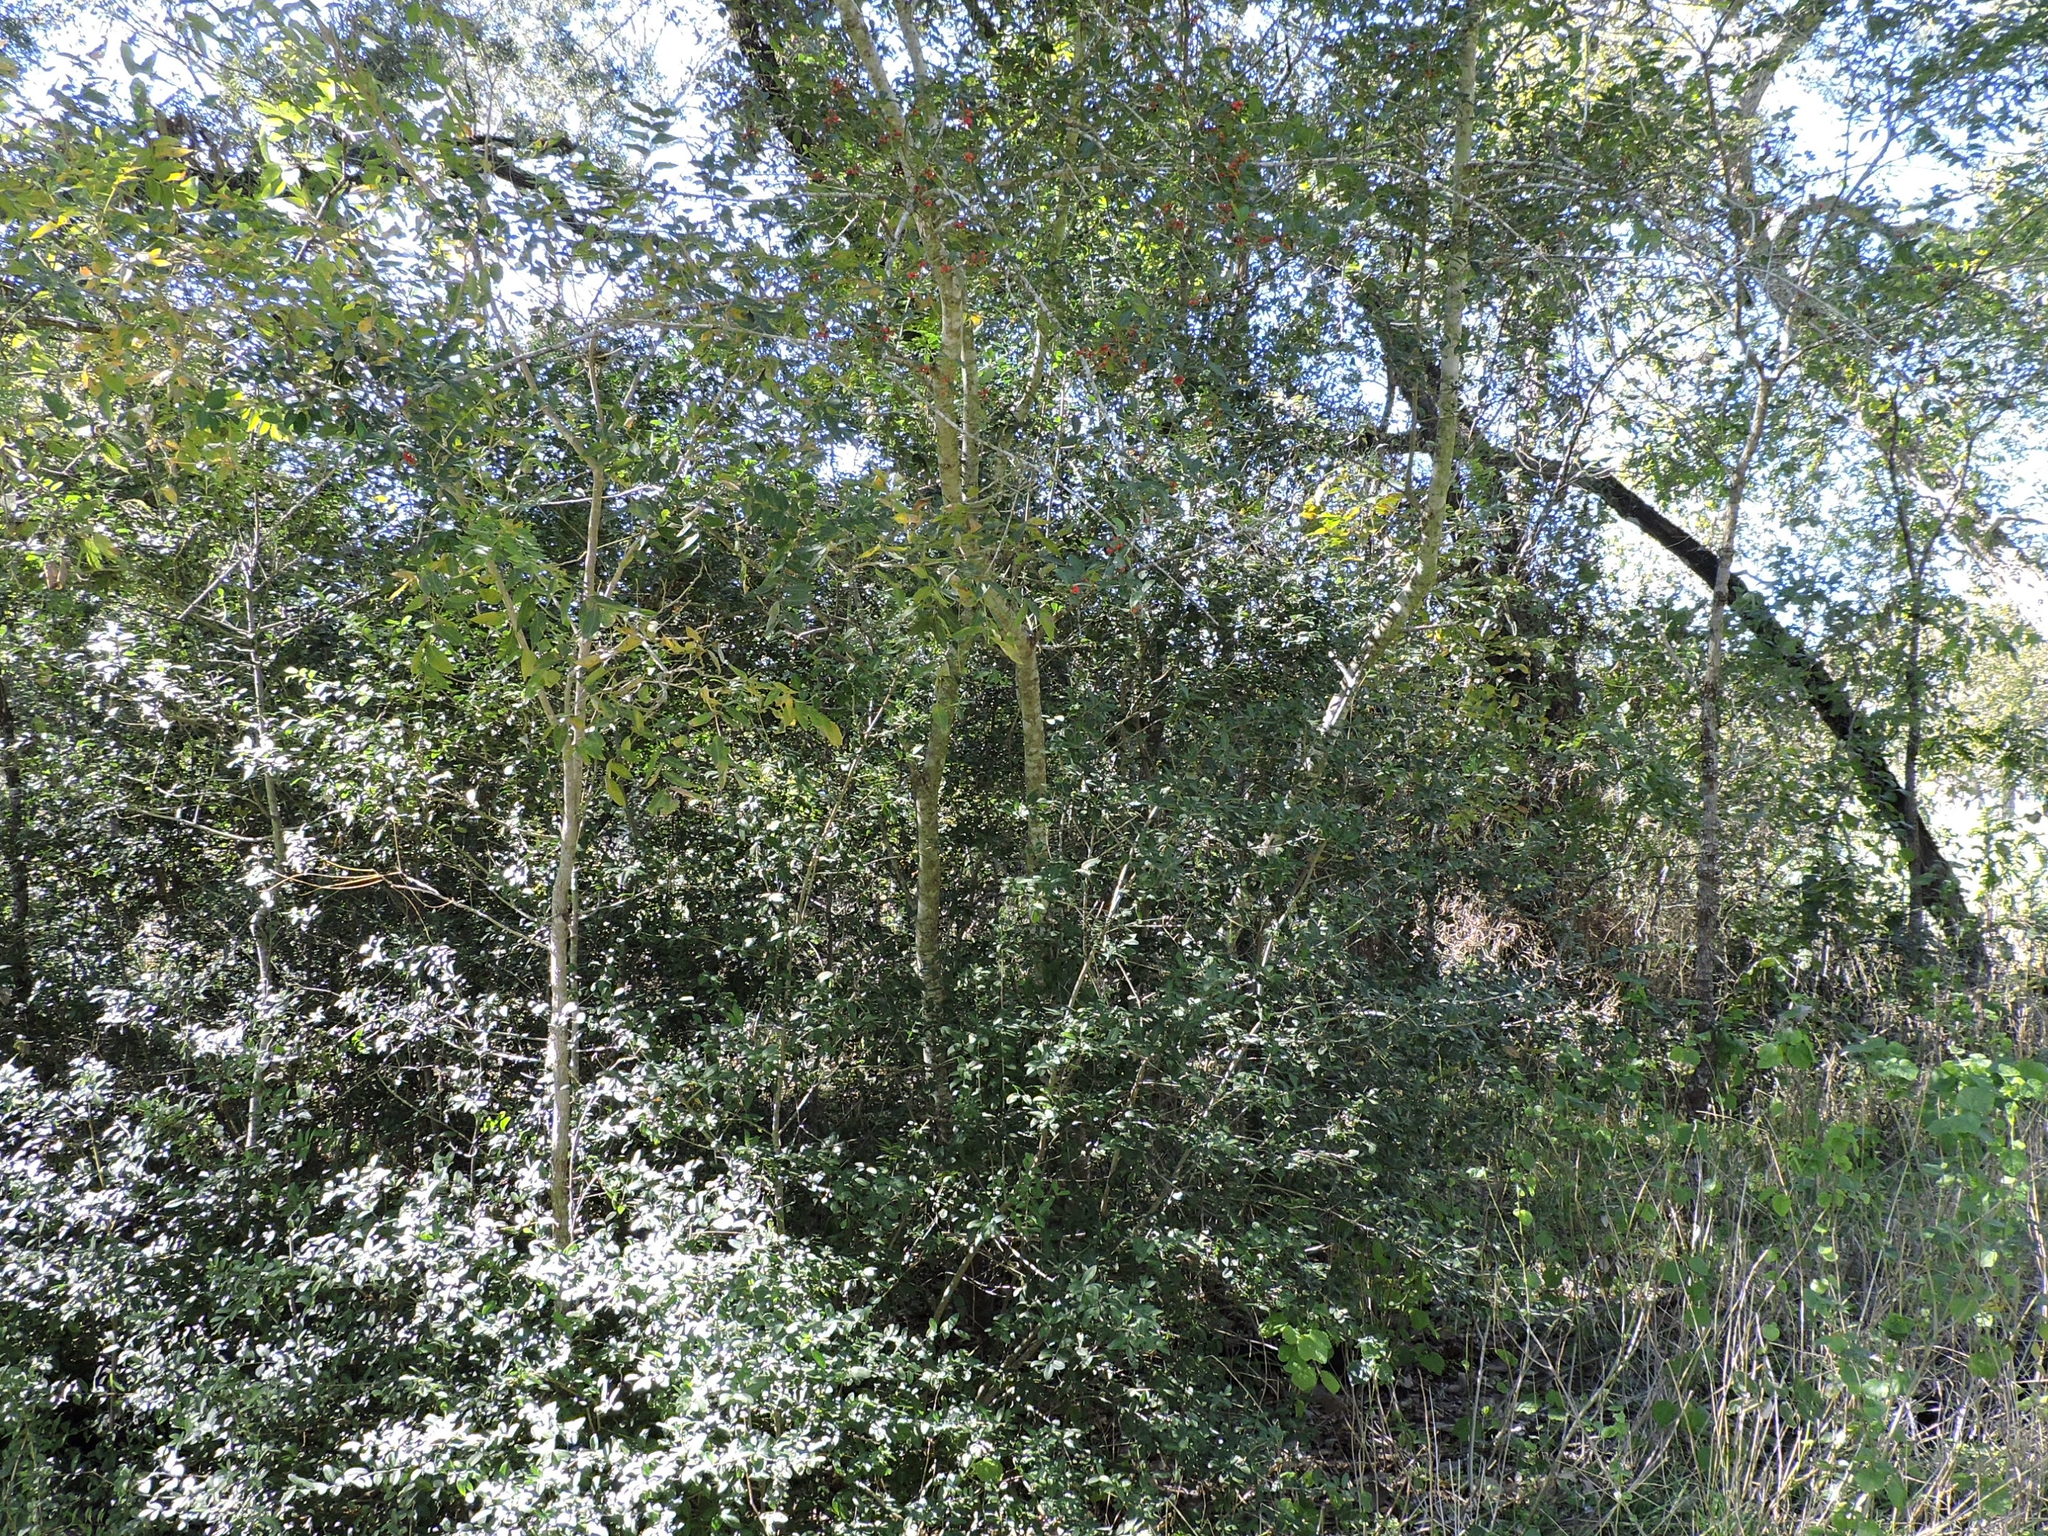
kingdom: Plantae
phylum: Tracheophyta
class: Magnoliopsida
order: Aquifoliales
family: Aquifoliaceae
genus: Ilex
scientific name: Ilex decidua
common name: Possum-haw
